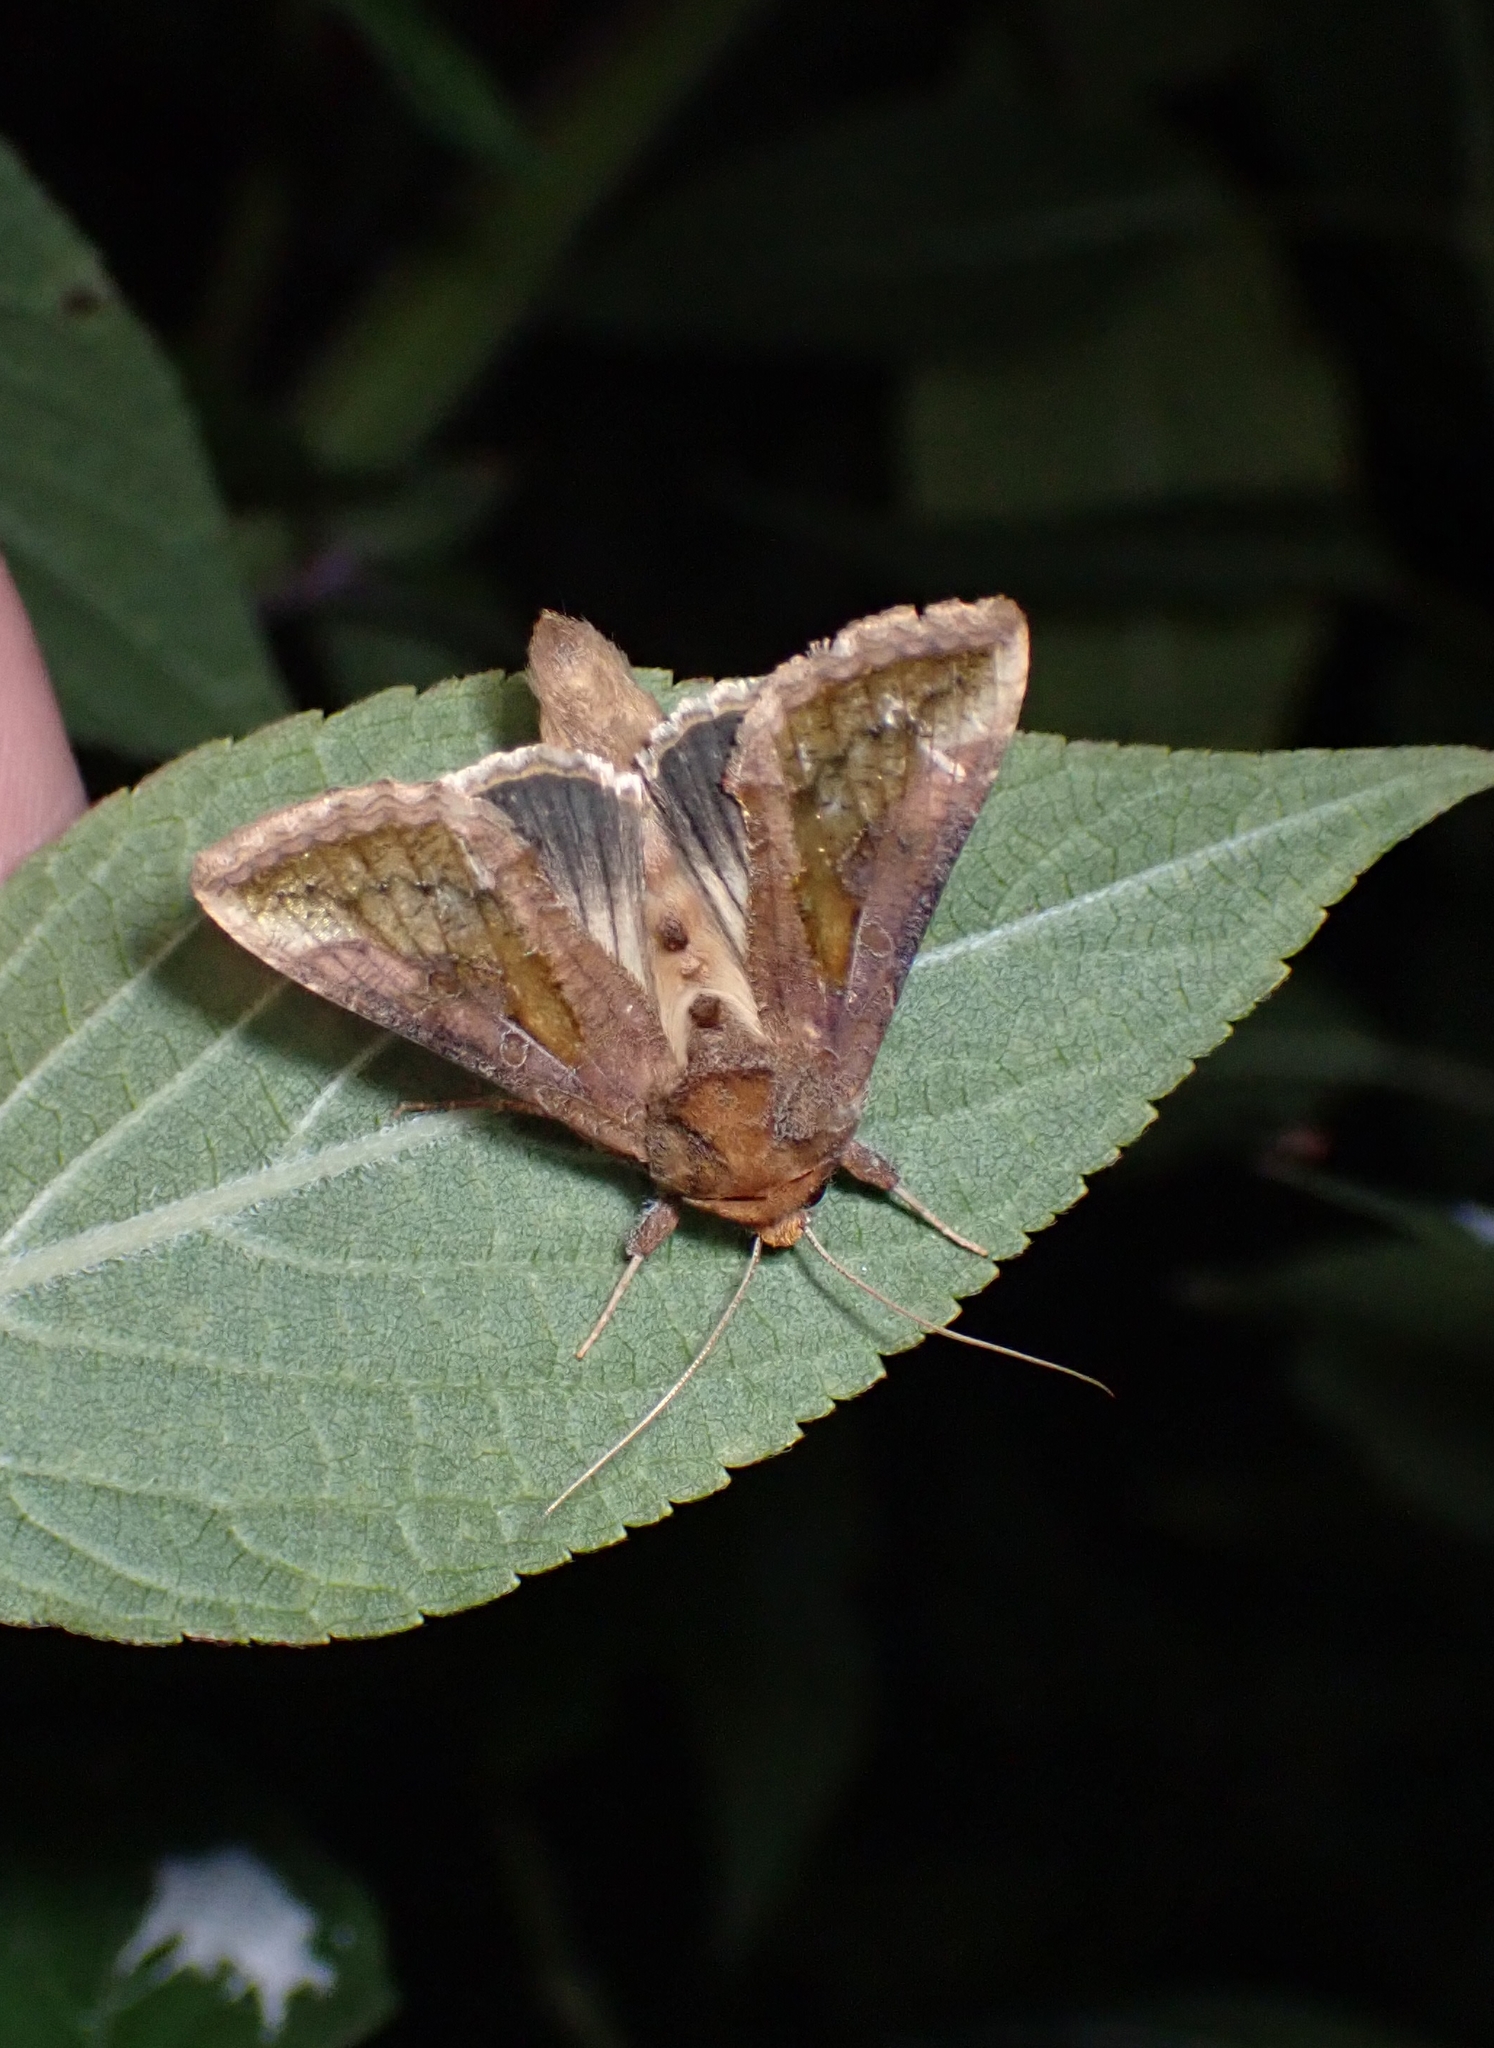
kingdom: Animalia
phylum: Arthropoda
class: Insecta
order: Lepidoptera
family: Noctuidae
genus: Thysanoplusia
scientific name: Thysanoplusia orichalcea
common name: Slender burnished brass, golden plusia
